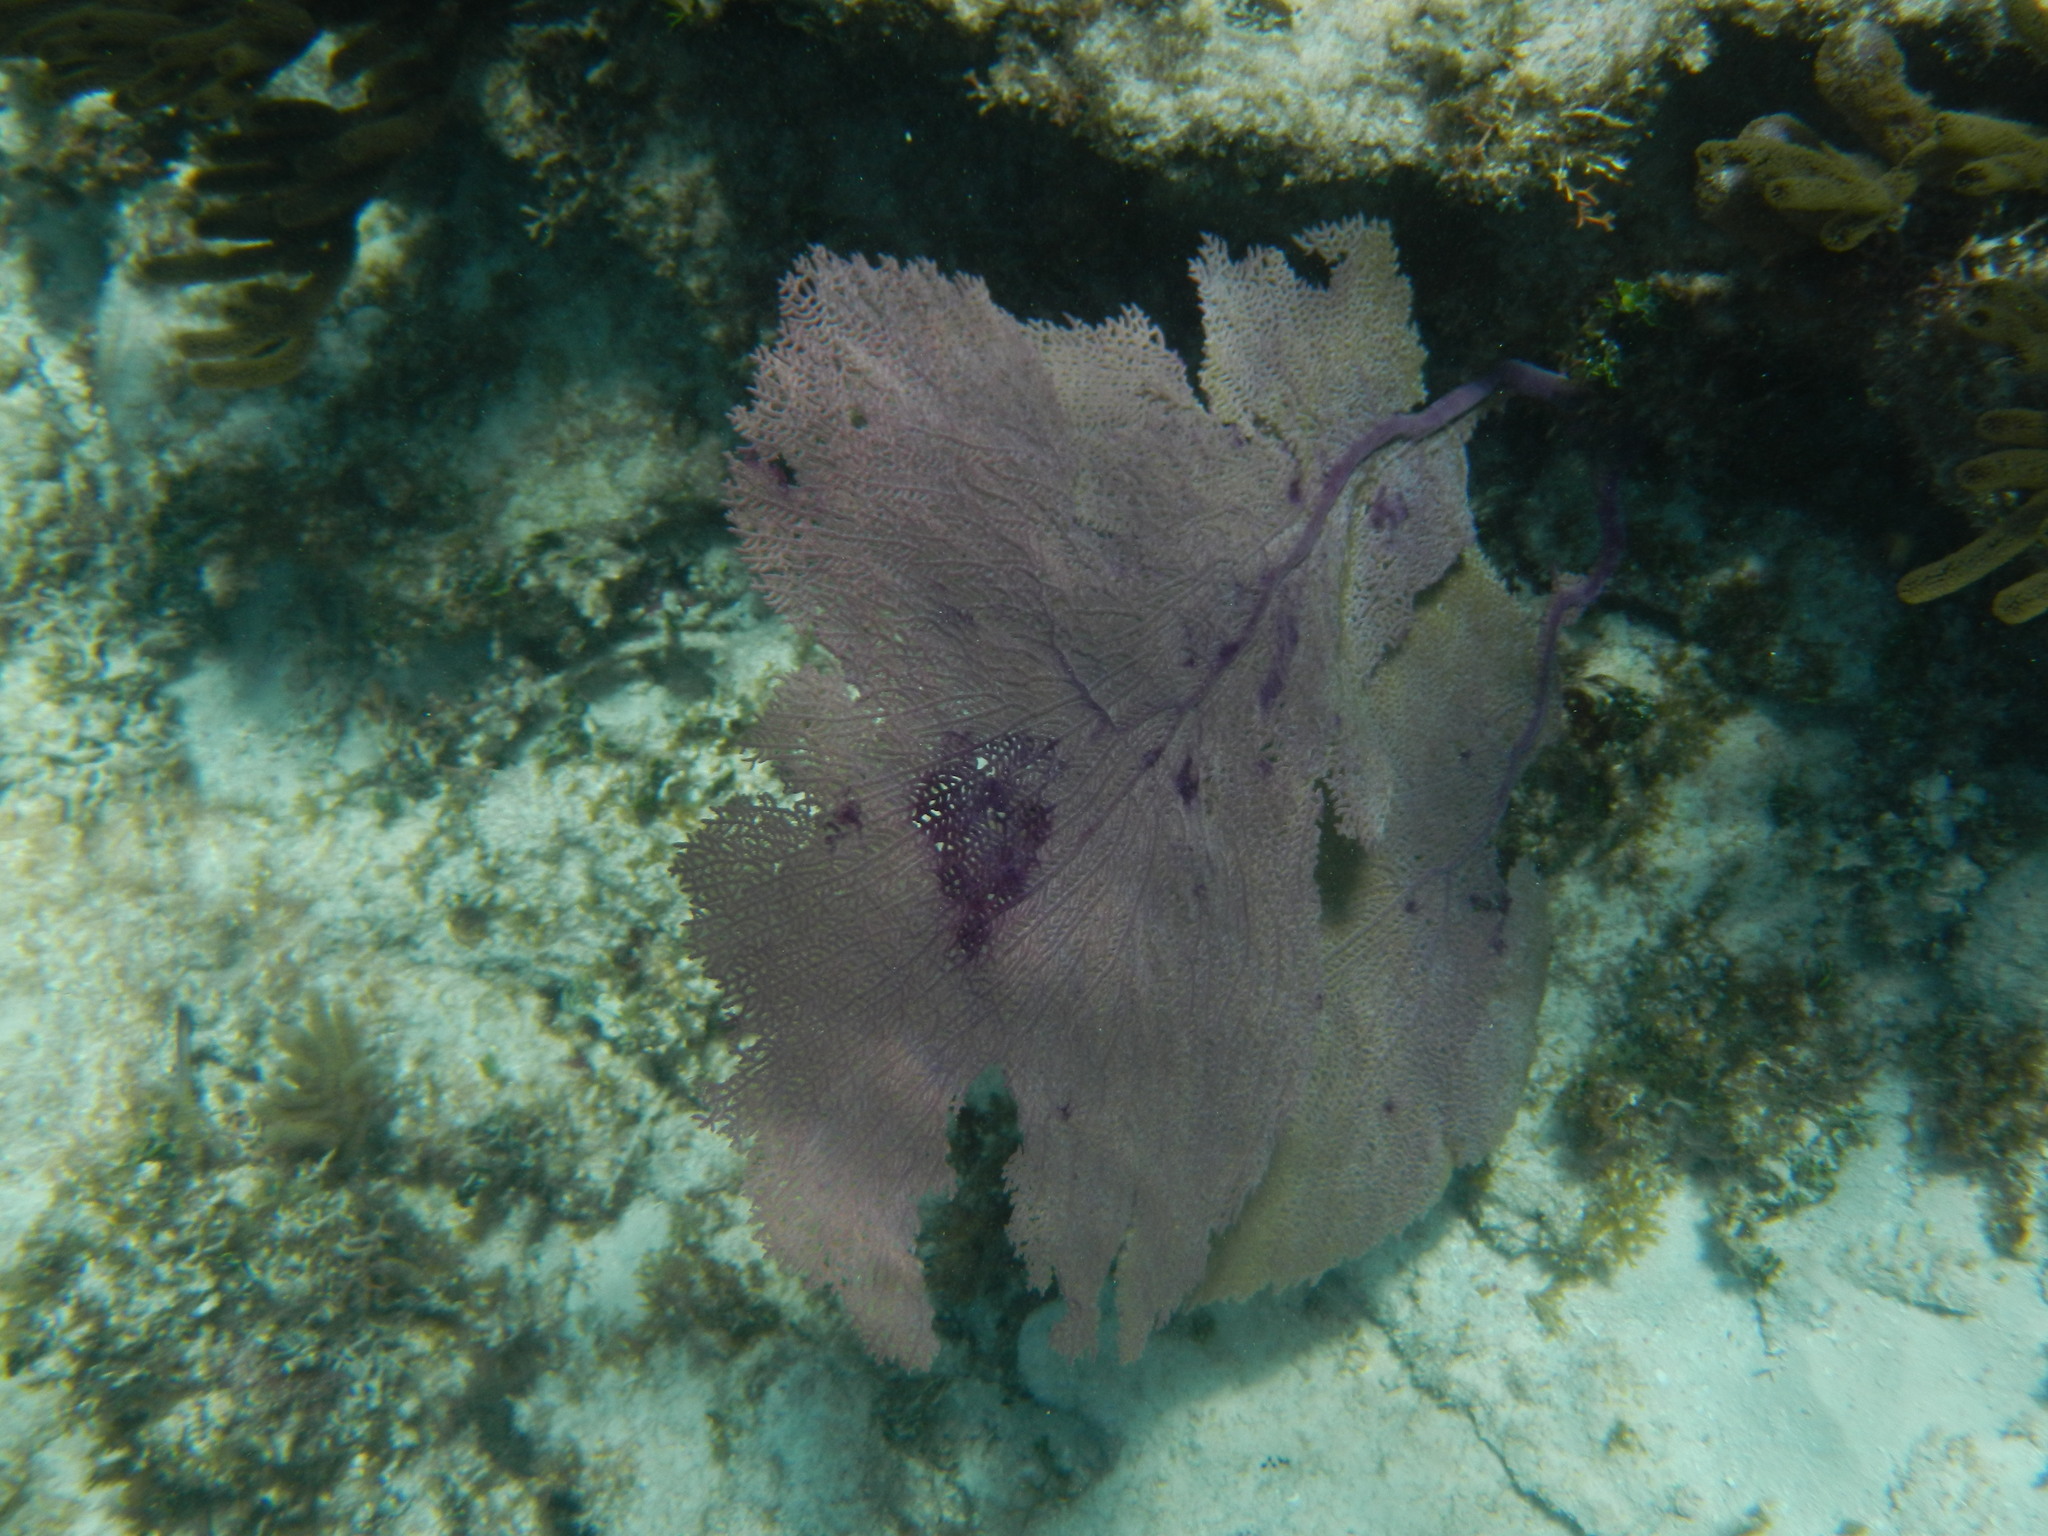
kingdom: Animalia
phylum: Cnidaria
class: Anthozoa
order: Malacalcyonacea
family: Gorgoniidae
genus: Gorgonia
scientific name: Gorgonia ventalina
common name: Common sea fan
